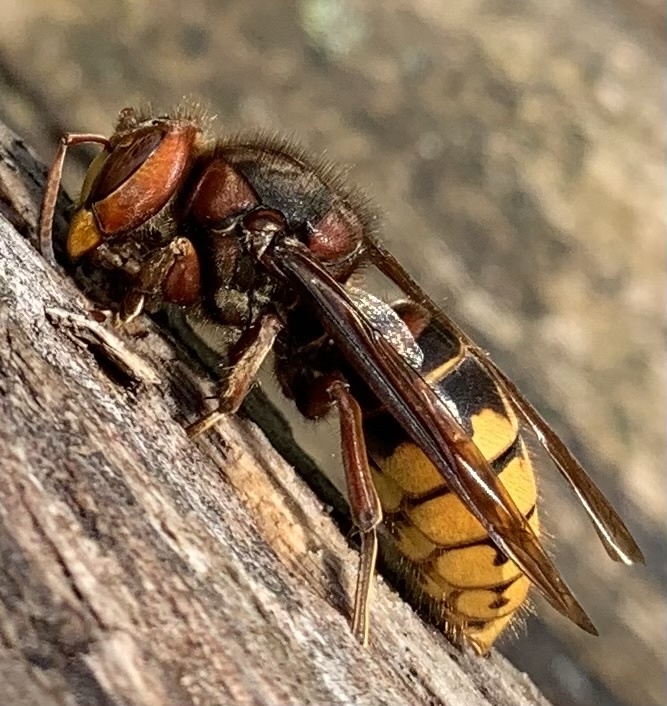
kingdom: Animalia
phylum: Arthropoda
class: Insecta
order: Hymenoptera
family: Vespidae
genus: Vespa
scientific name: Vespa crabro
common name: Hornet
